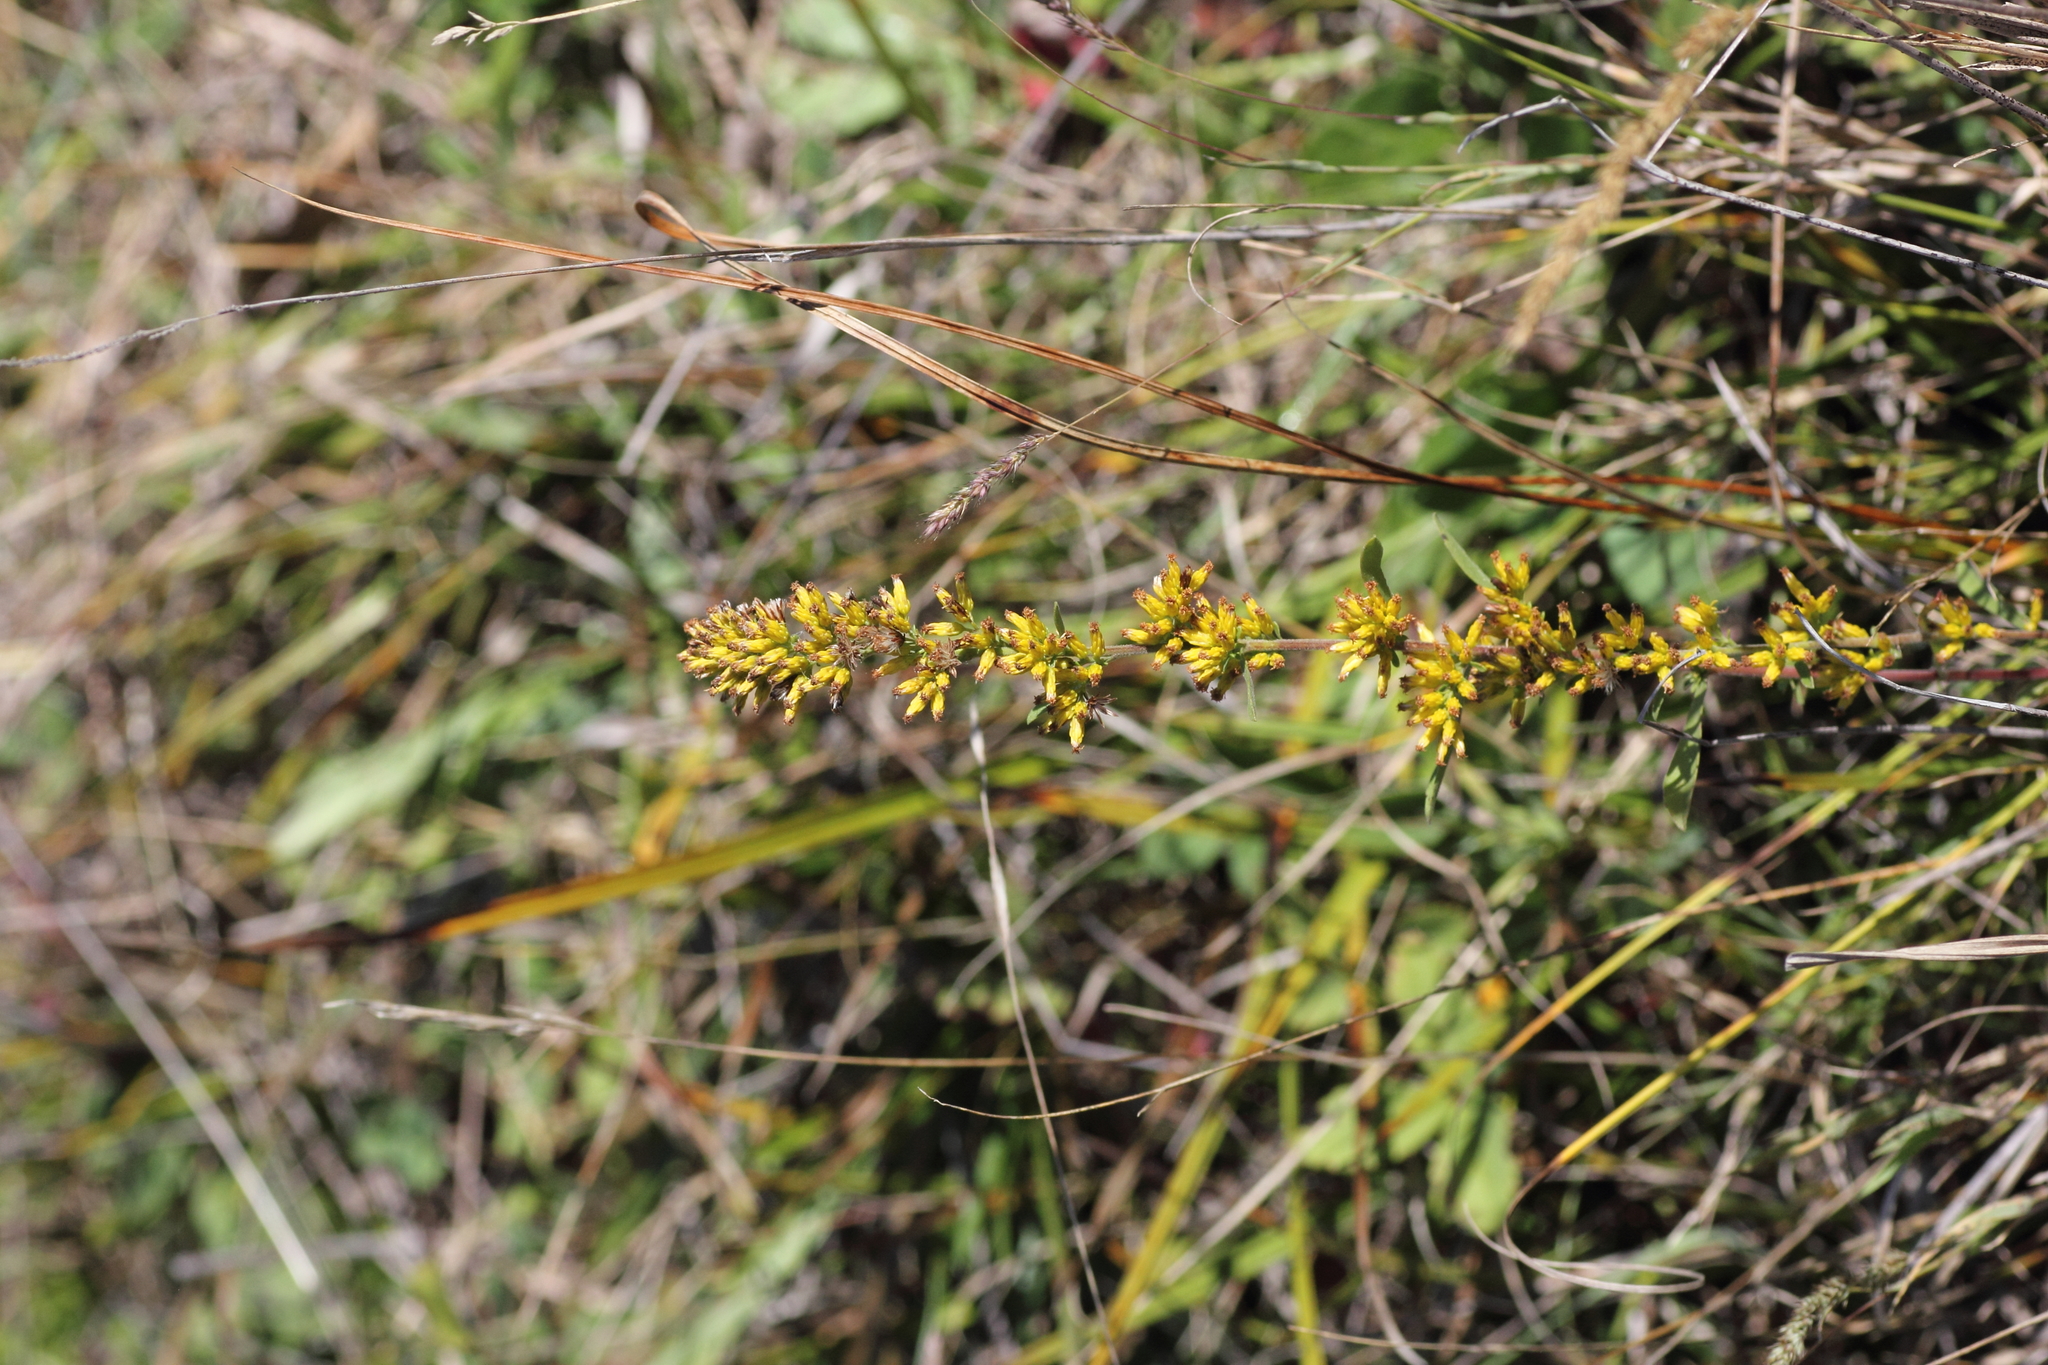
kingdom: Plantae
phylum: Tracheophyta
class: Magnoliopsida
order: Asterales
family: Asteraceae
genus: Solidago
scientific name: Solidago nemoralis
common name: Grey goldenrod
